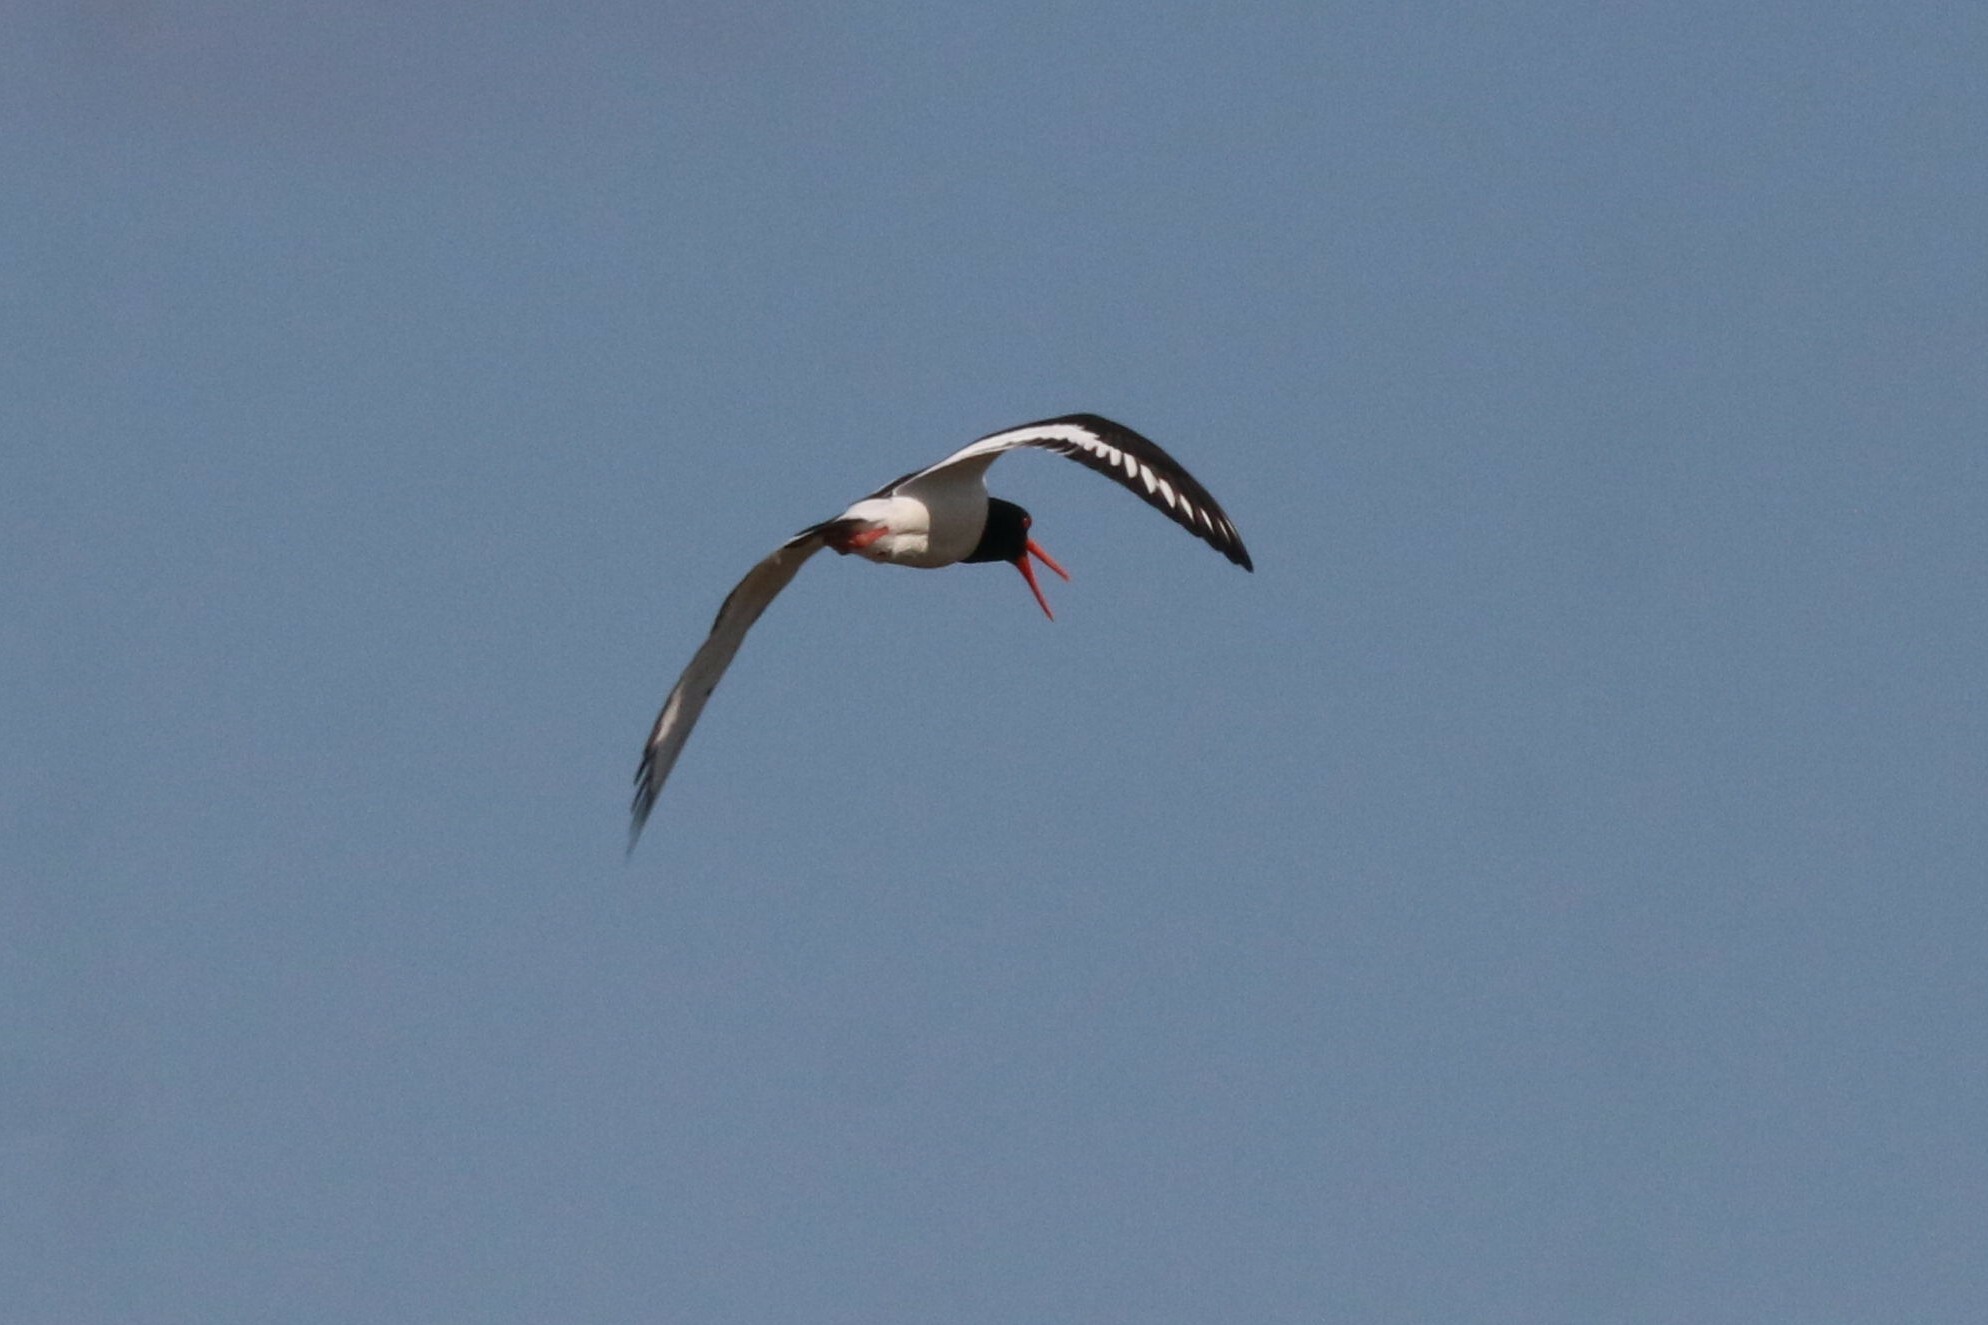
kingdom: Animalia
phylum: Chordata
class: Aves
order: Charadriiformes
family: Haematopodidae
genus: Haematopus
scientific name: Haematopus ostralegus
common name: Eurasian oystercatcher
